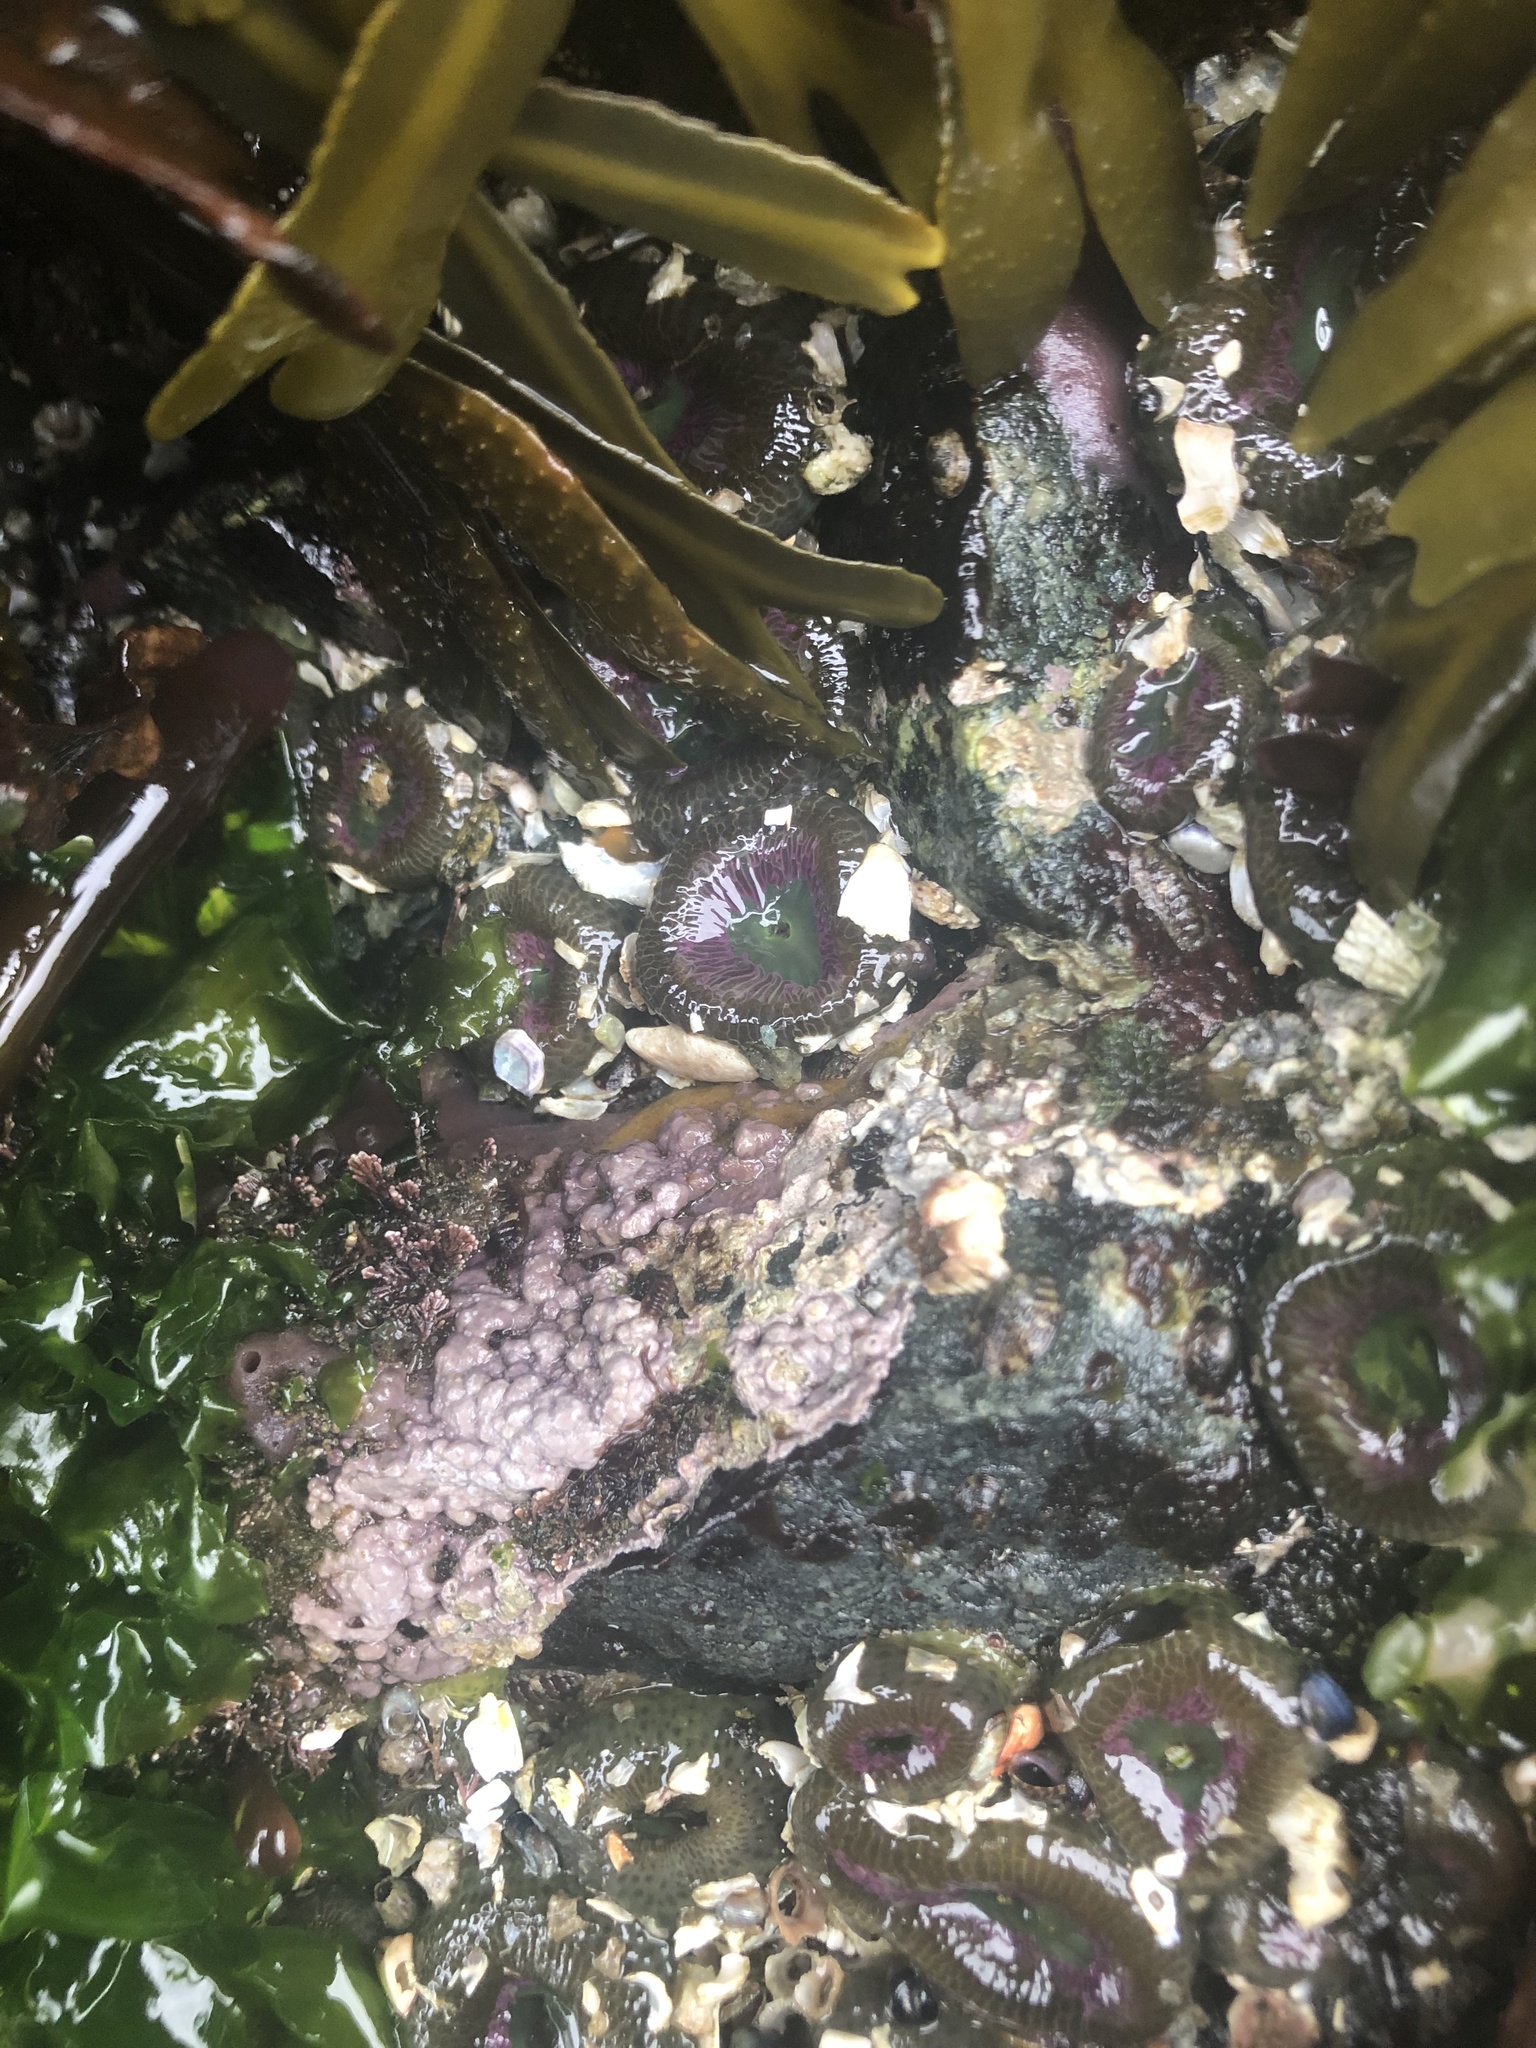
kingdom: Plantae
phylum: Rhodophyta
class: Florideophyceae
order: Corallinales
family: Corallinaceae
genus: Chamberlainium
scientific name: Chamberlainium tumidum
